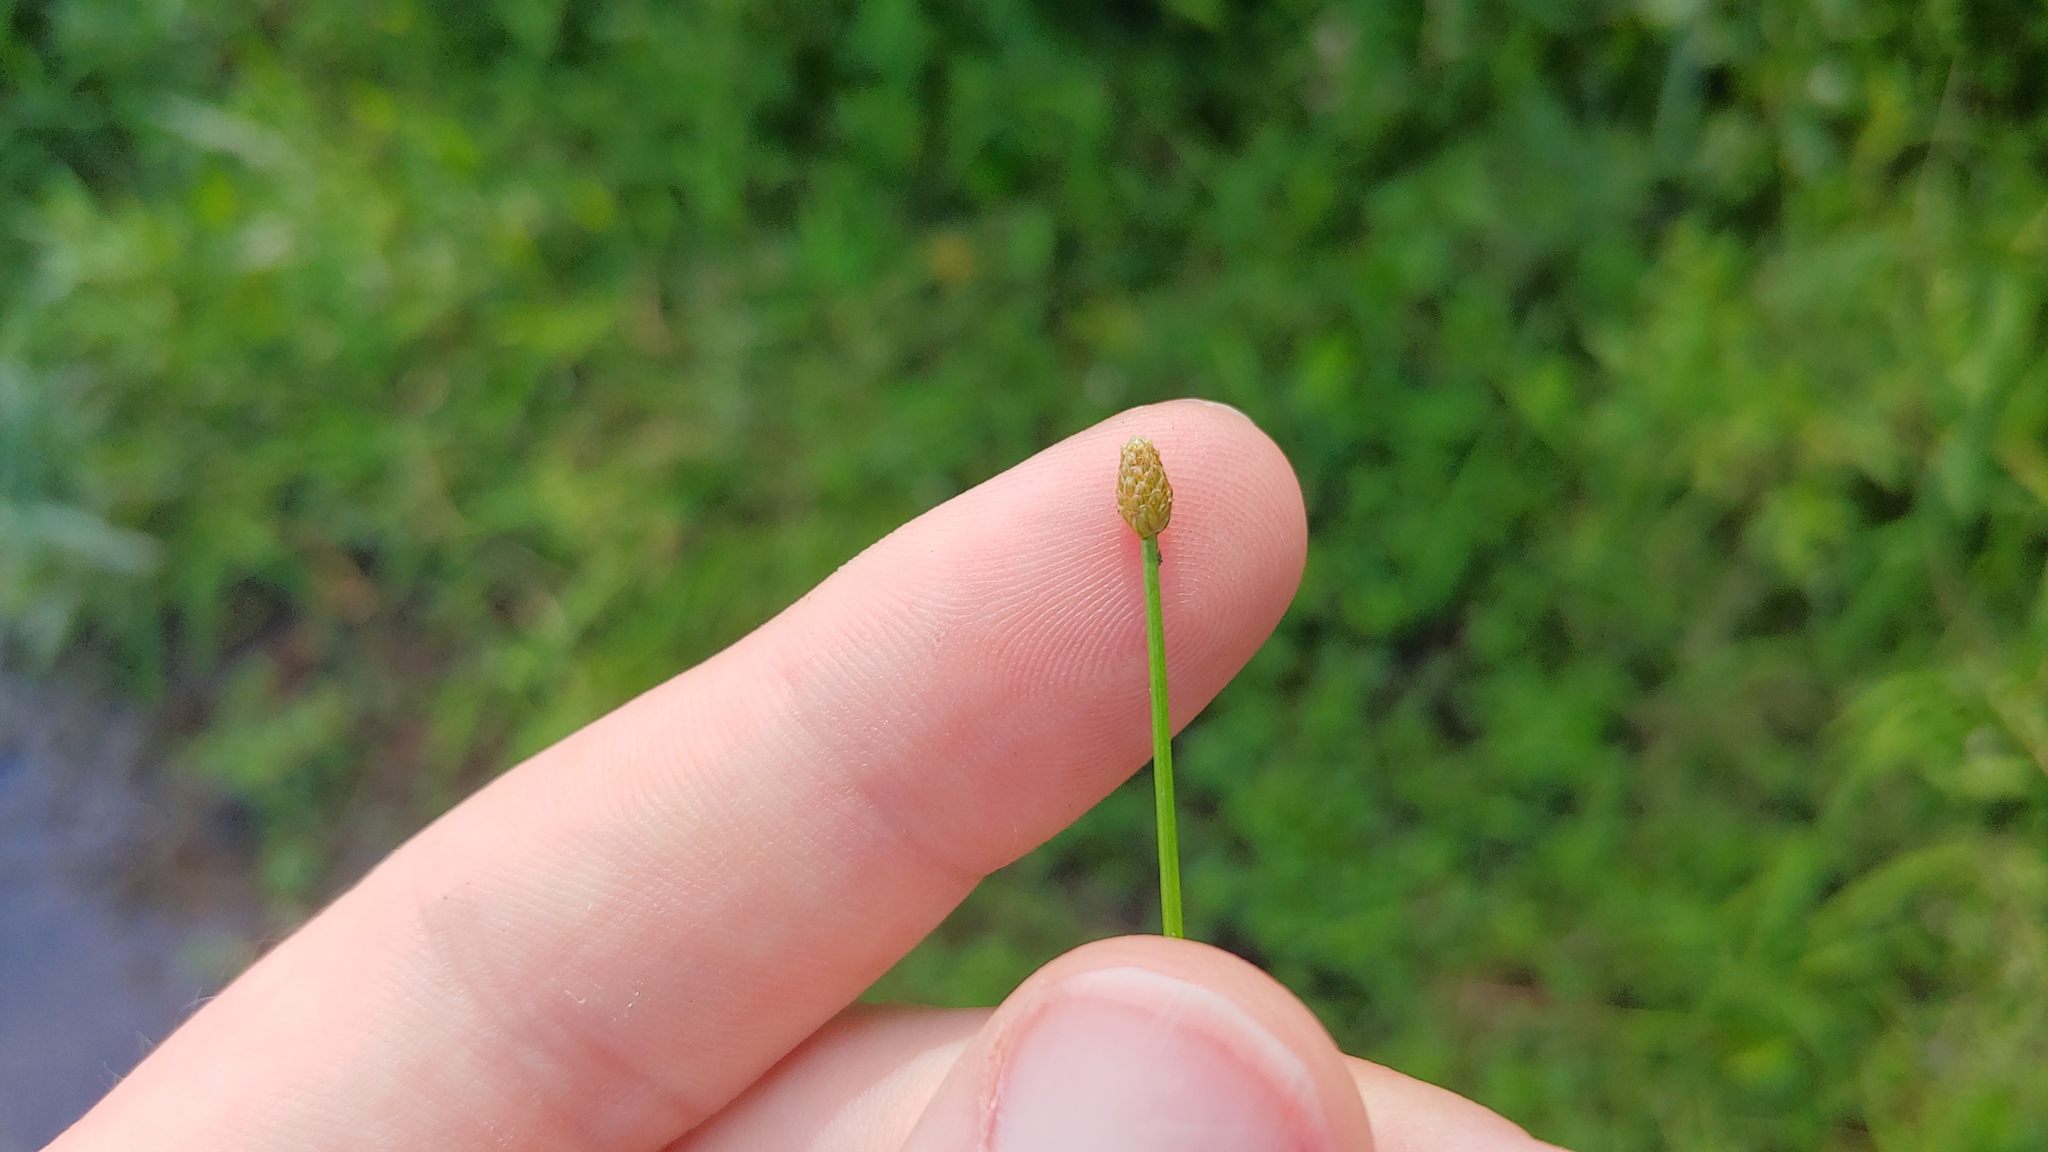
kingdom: Plantae
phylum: Tracheophyta
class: Liliopsida
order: Poales
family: Cyperaceae
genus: Eleocharis
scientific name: Eleocharis obtusa
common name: Blunt spikerush
